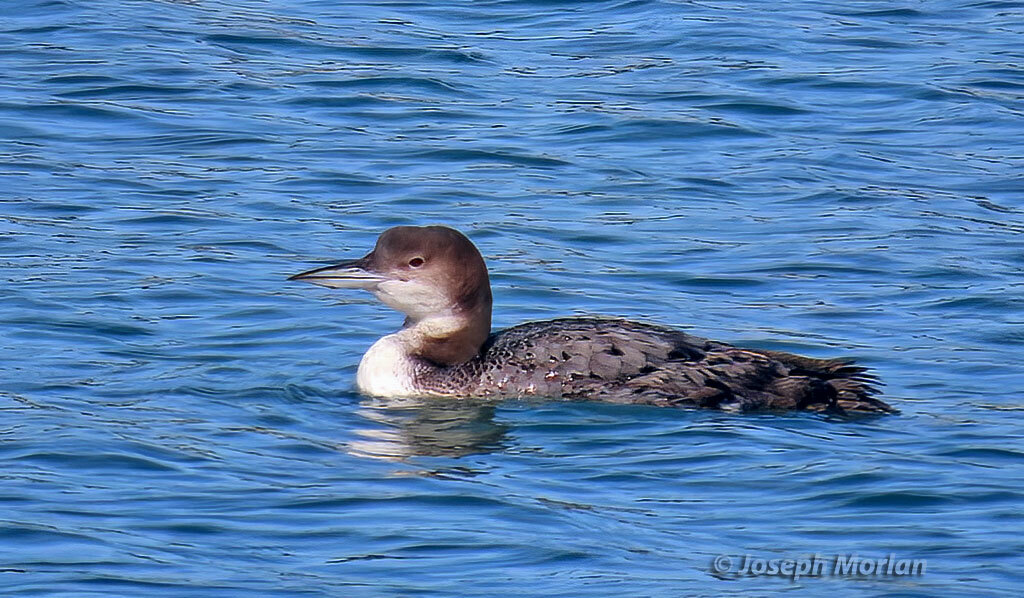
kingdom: Animalia
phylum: Chordata
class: Aves
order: Gaviiformes
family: Gaviidae
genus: Gavia
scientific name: Gavia immer
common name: Common loon
